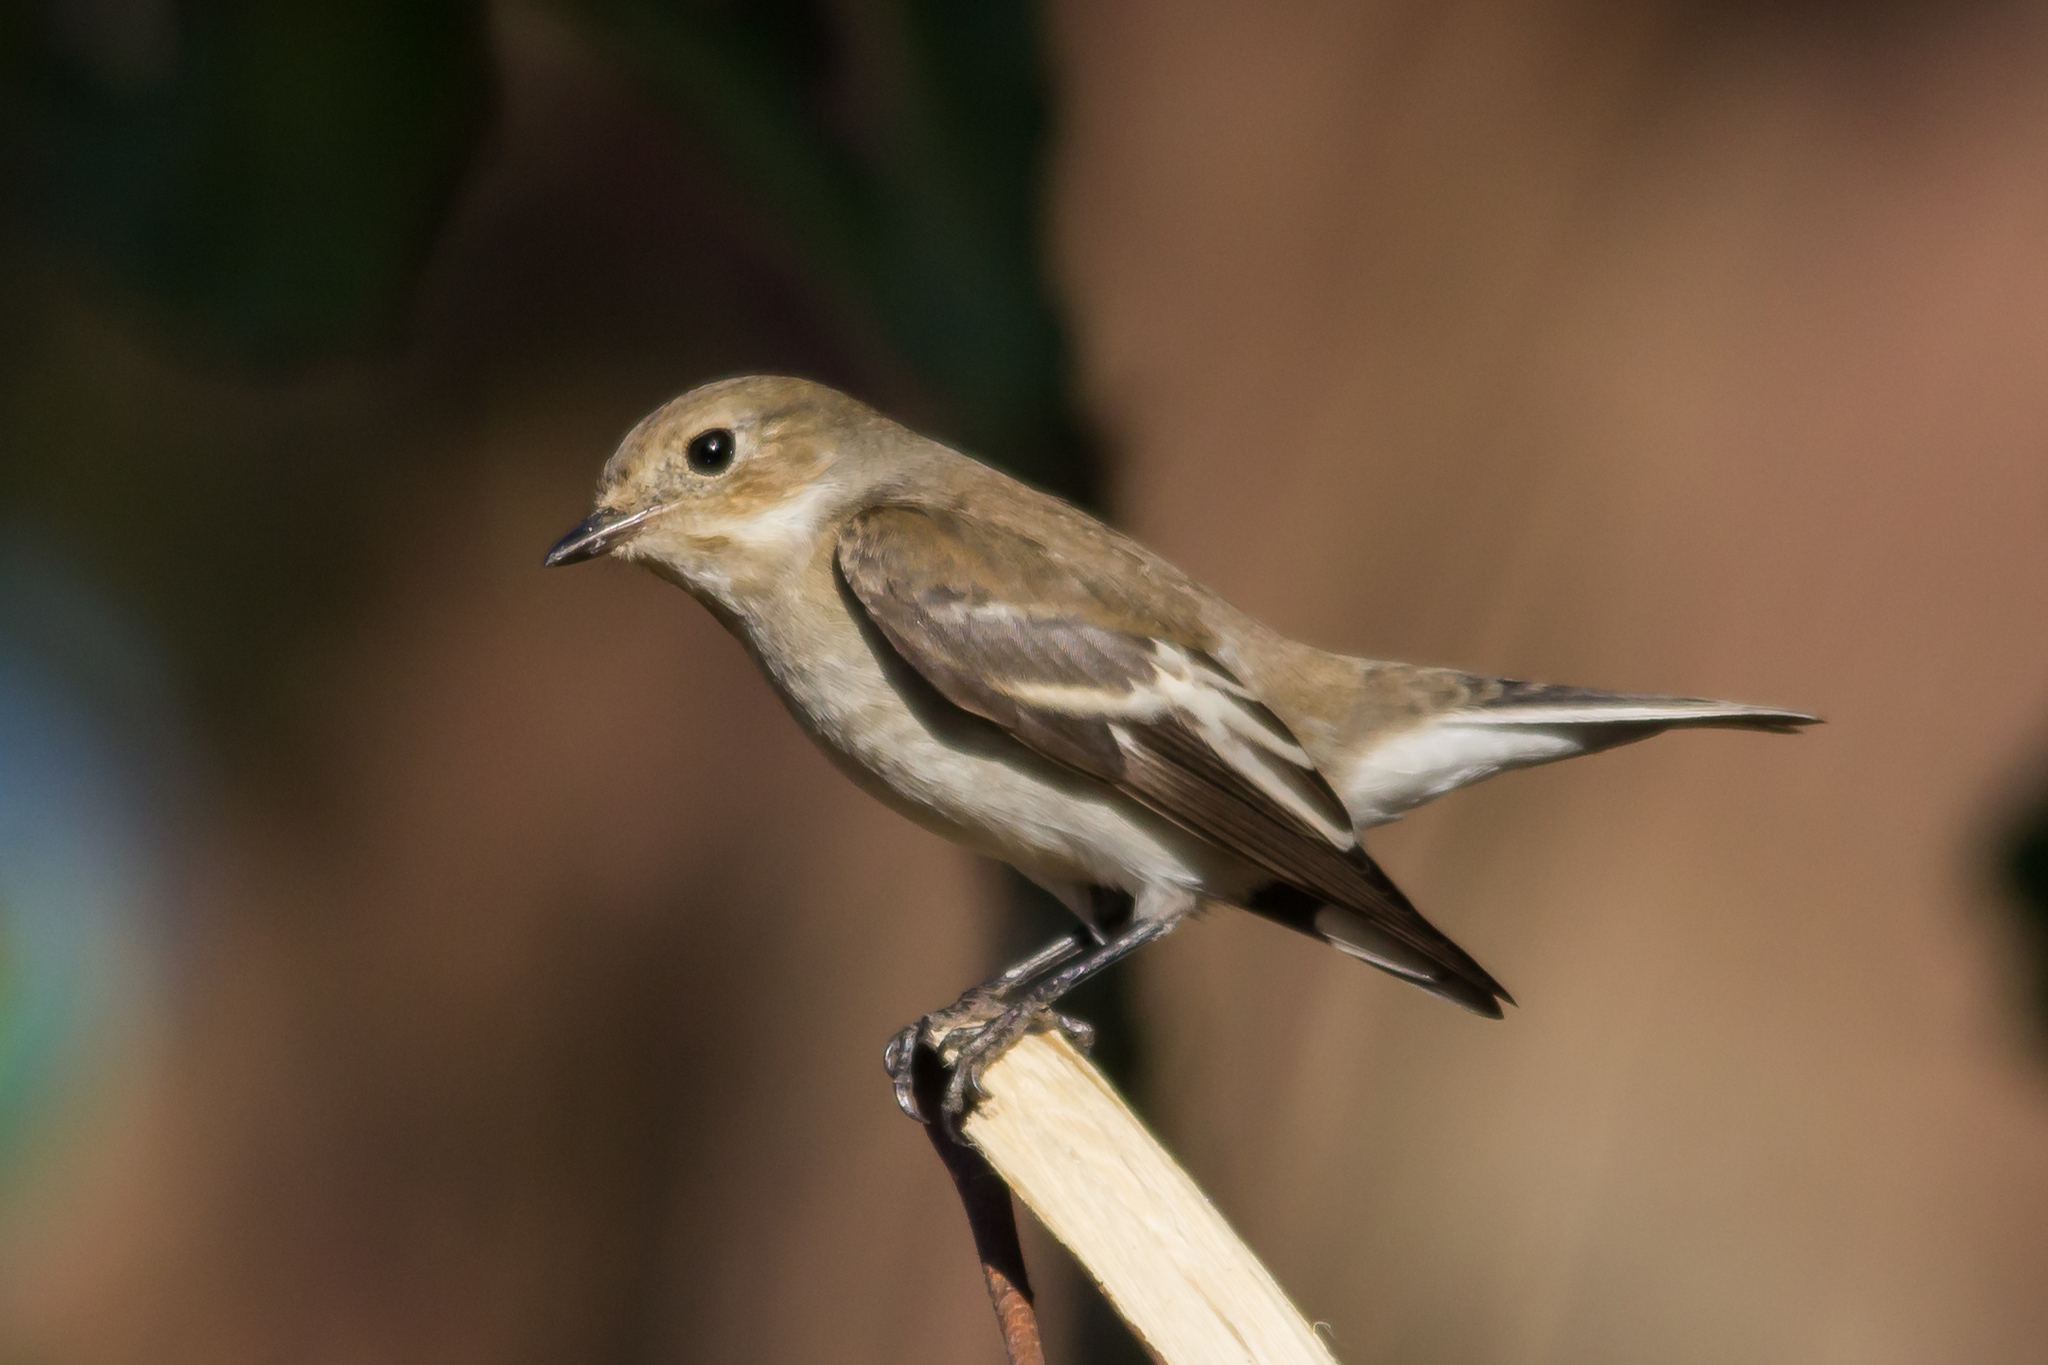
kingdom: Animalia
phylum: Chordata
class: Aves
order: Passeriformes
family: Muscicapidae
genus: Ficedula
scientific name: Ficedula hypoleuca
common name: European pied flycatcher
